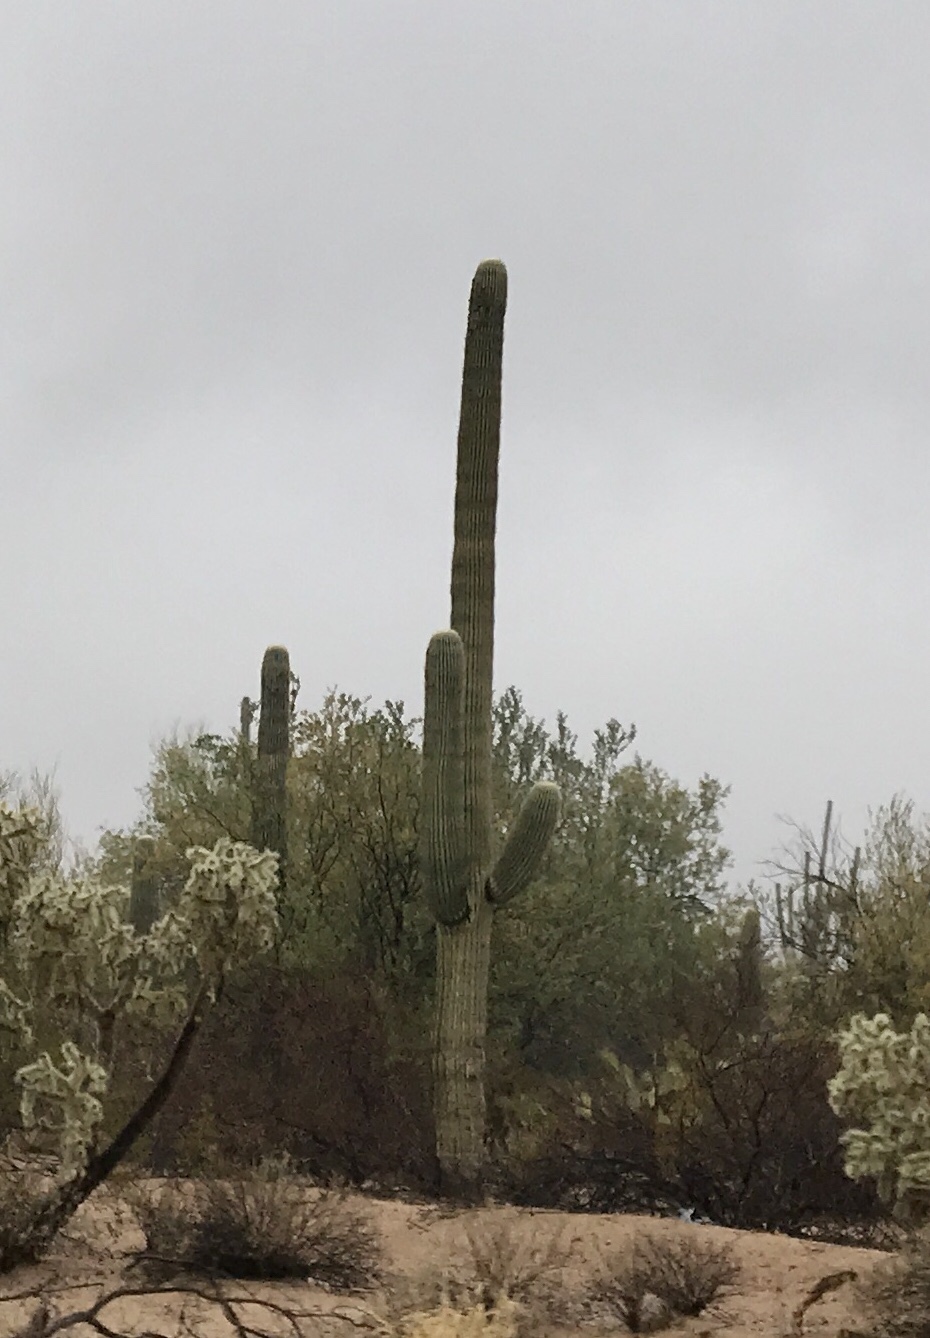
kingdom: Plantae
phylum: Tracheophyta
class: Magnoliopsida
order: Caryophyllales
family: Cactaceae
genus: Carnegiea
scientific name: Carnegiea gigantea
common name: Saguaro
